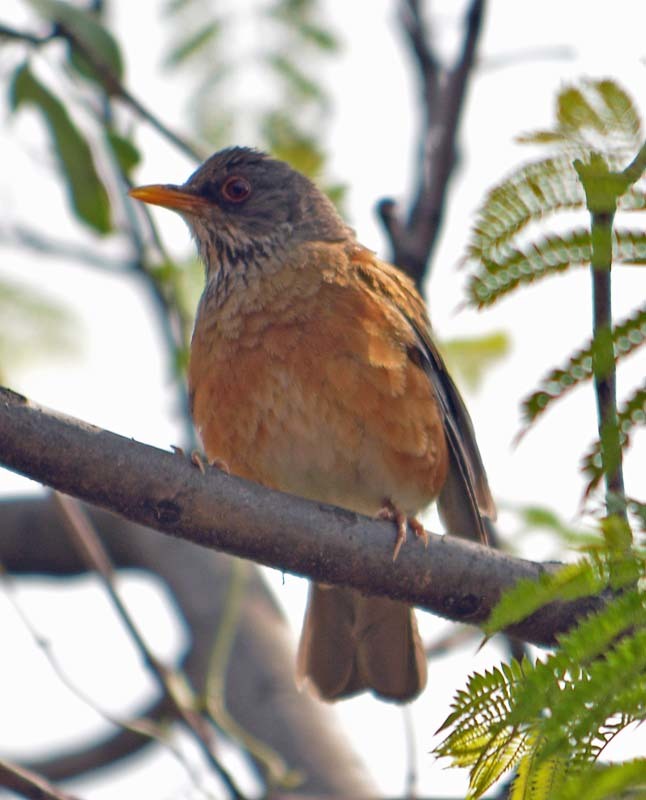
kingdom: Animalia
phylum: Chordata
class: Aves
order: Passeriformes
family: Turdidae
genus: Turdus
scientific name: Turdus rufopalliatus
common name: Rufous-backed robin
